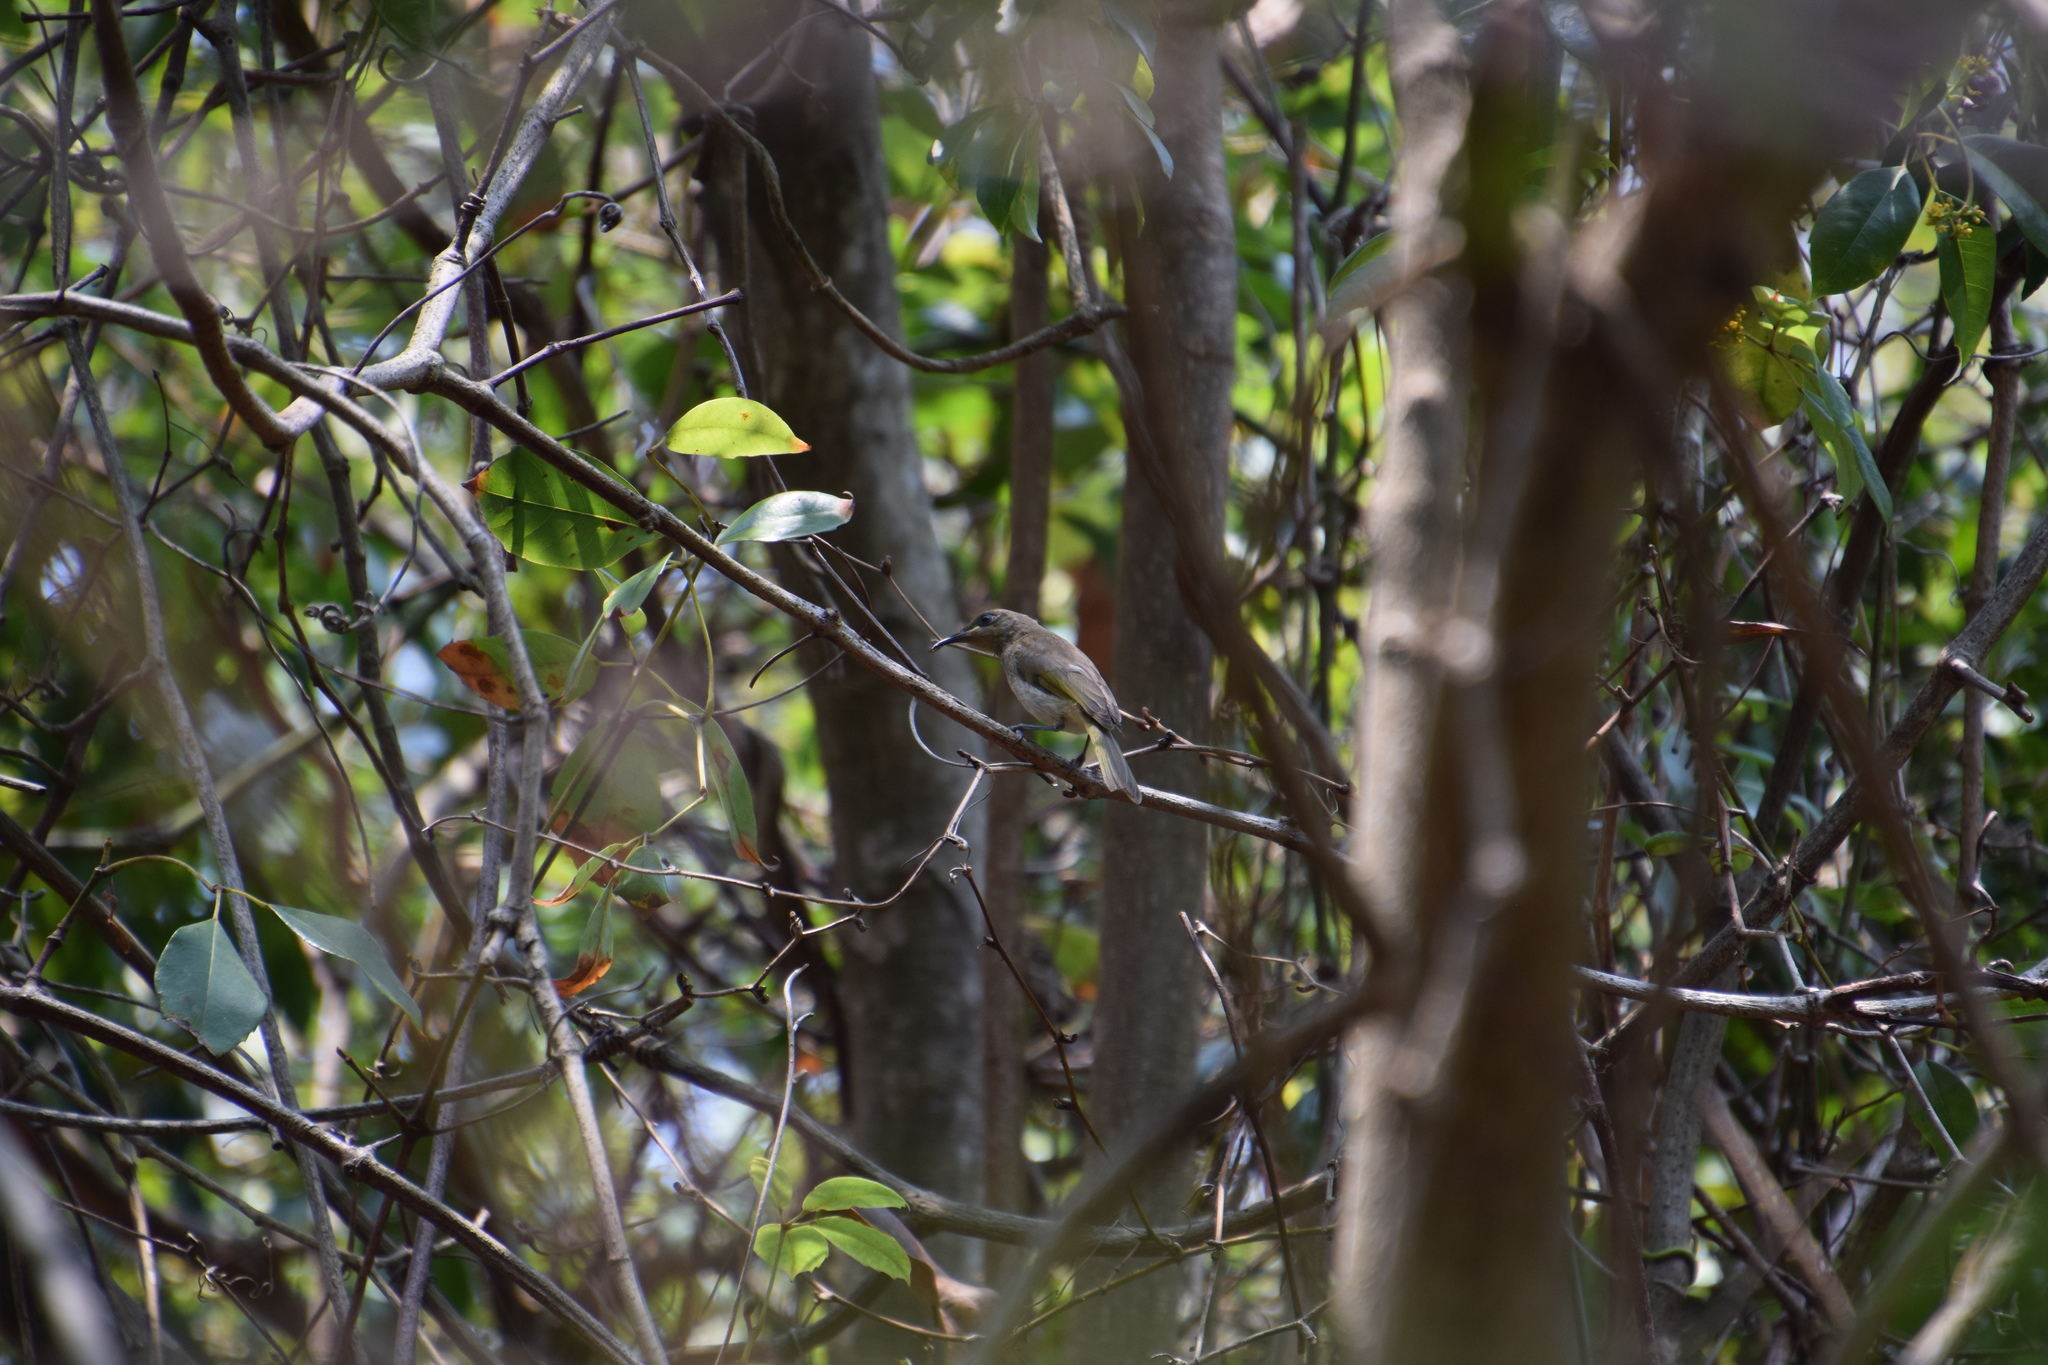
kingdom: Animalia
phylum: Chordata
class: Aves
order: Passeriformes
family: Meliphagidae
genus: Lichmera
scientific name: Lichmera indistincta
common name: Brown honeyeater
